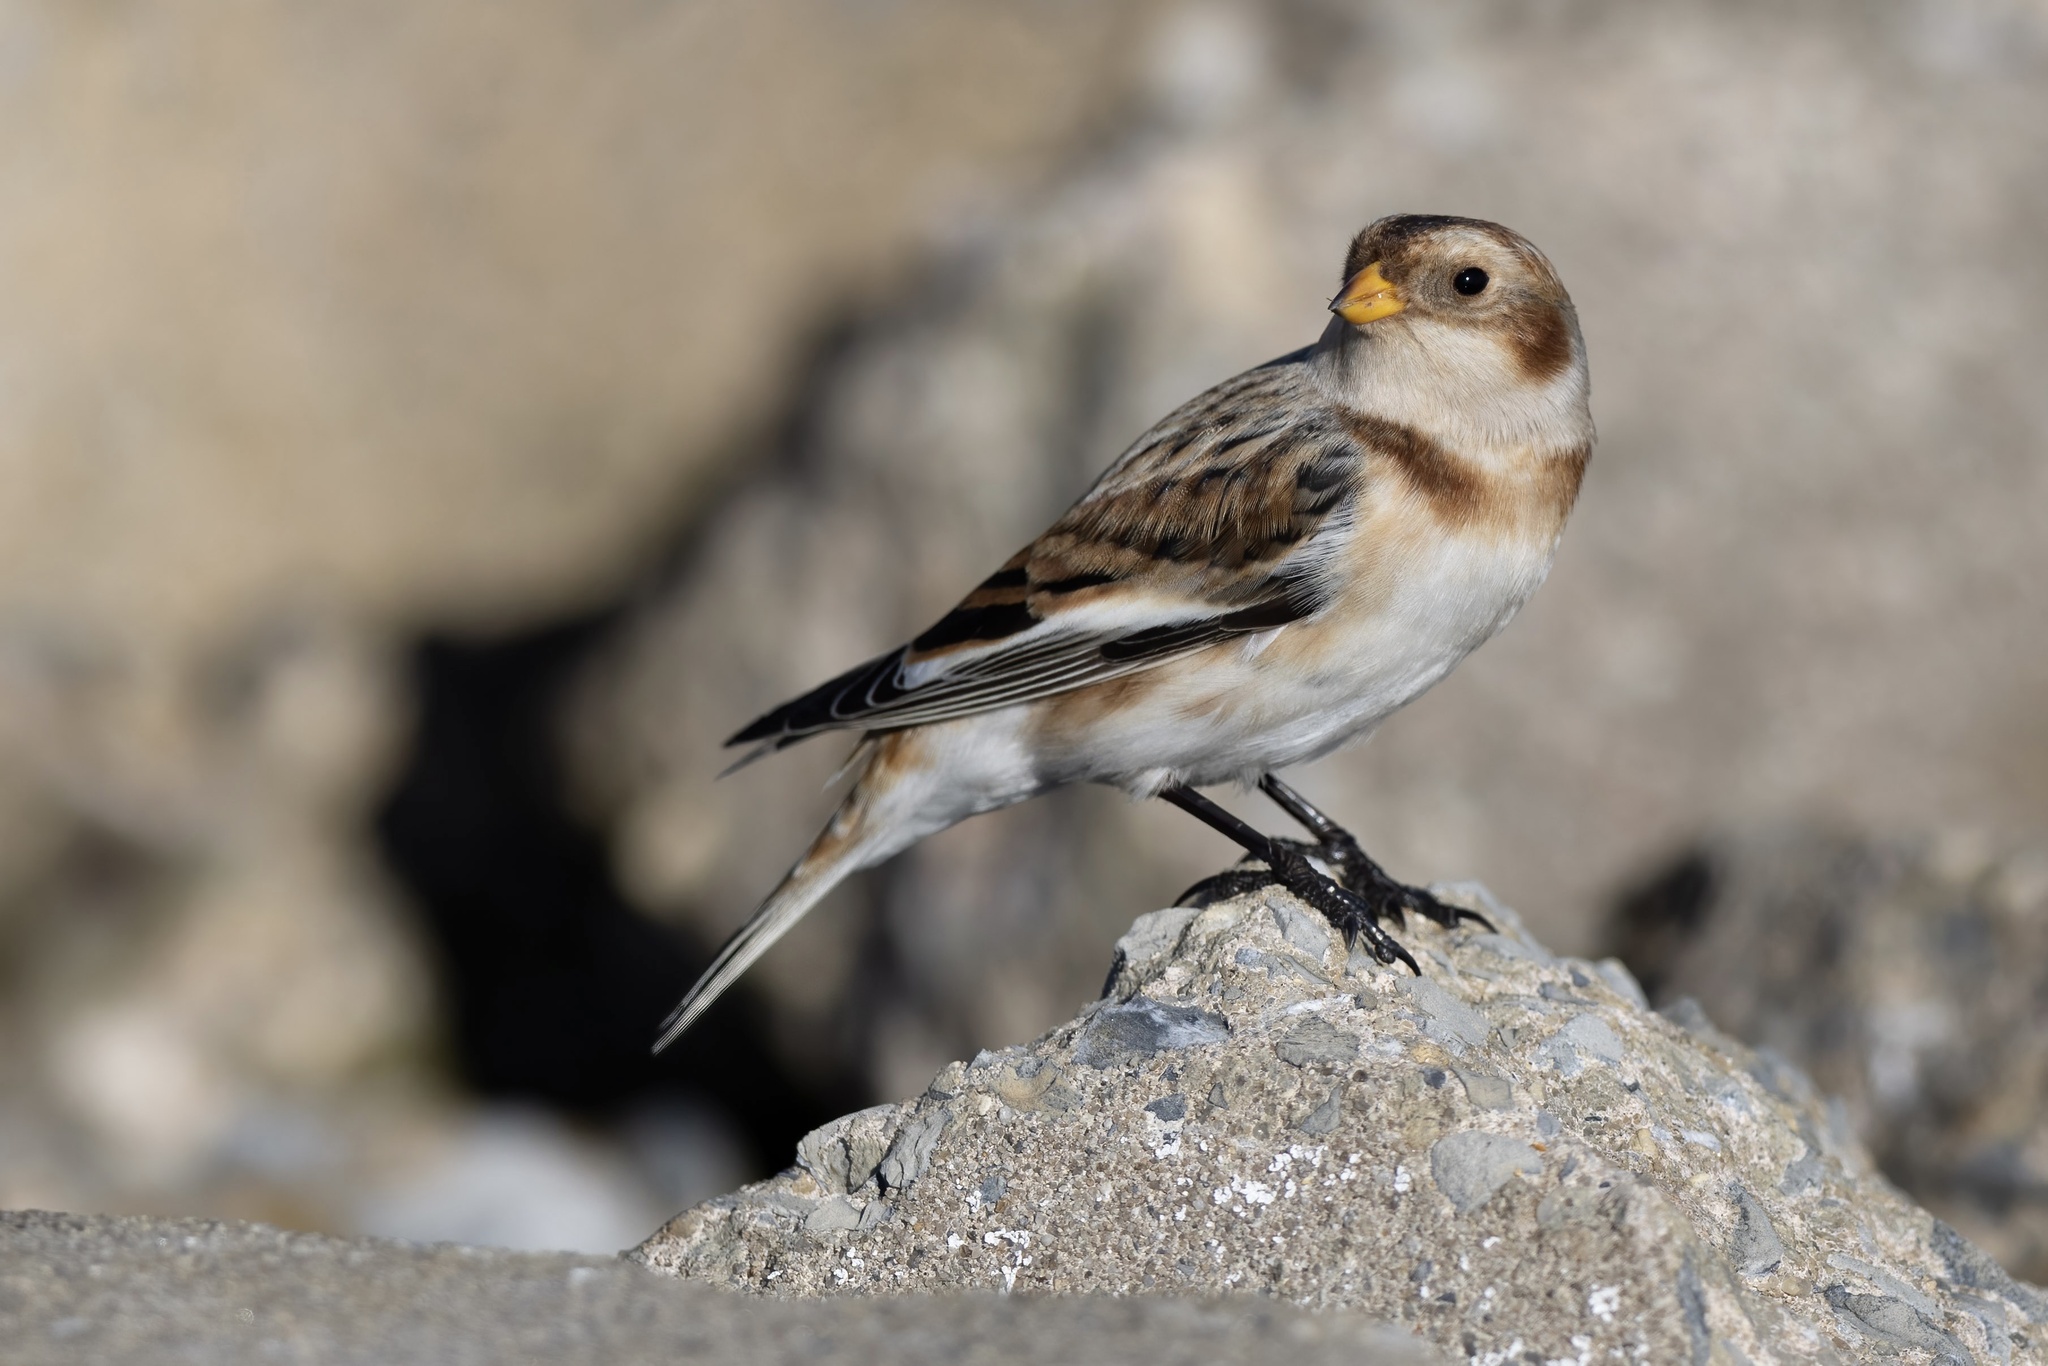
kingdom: Animalia
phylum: Chordata
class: Aves
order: Passeriformes
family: Calcariidae
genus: Plectrophenax
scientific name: Plectrophenax nivalis
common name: Snow bunting
